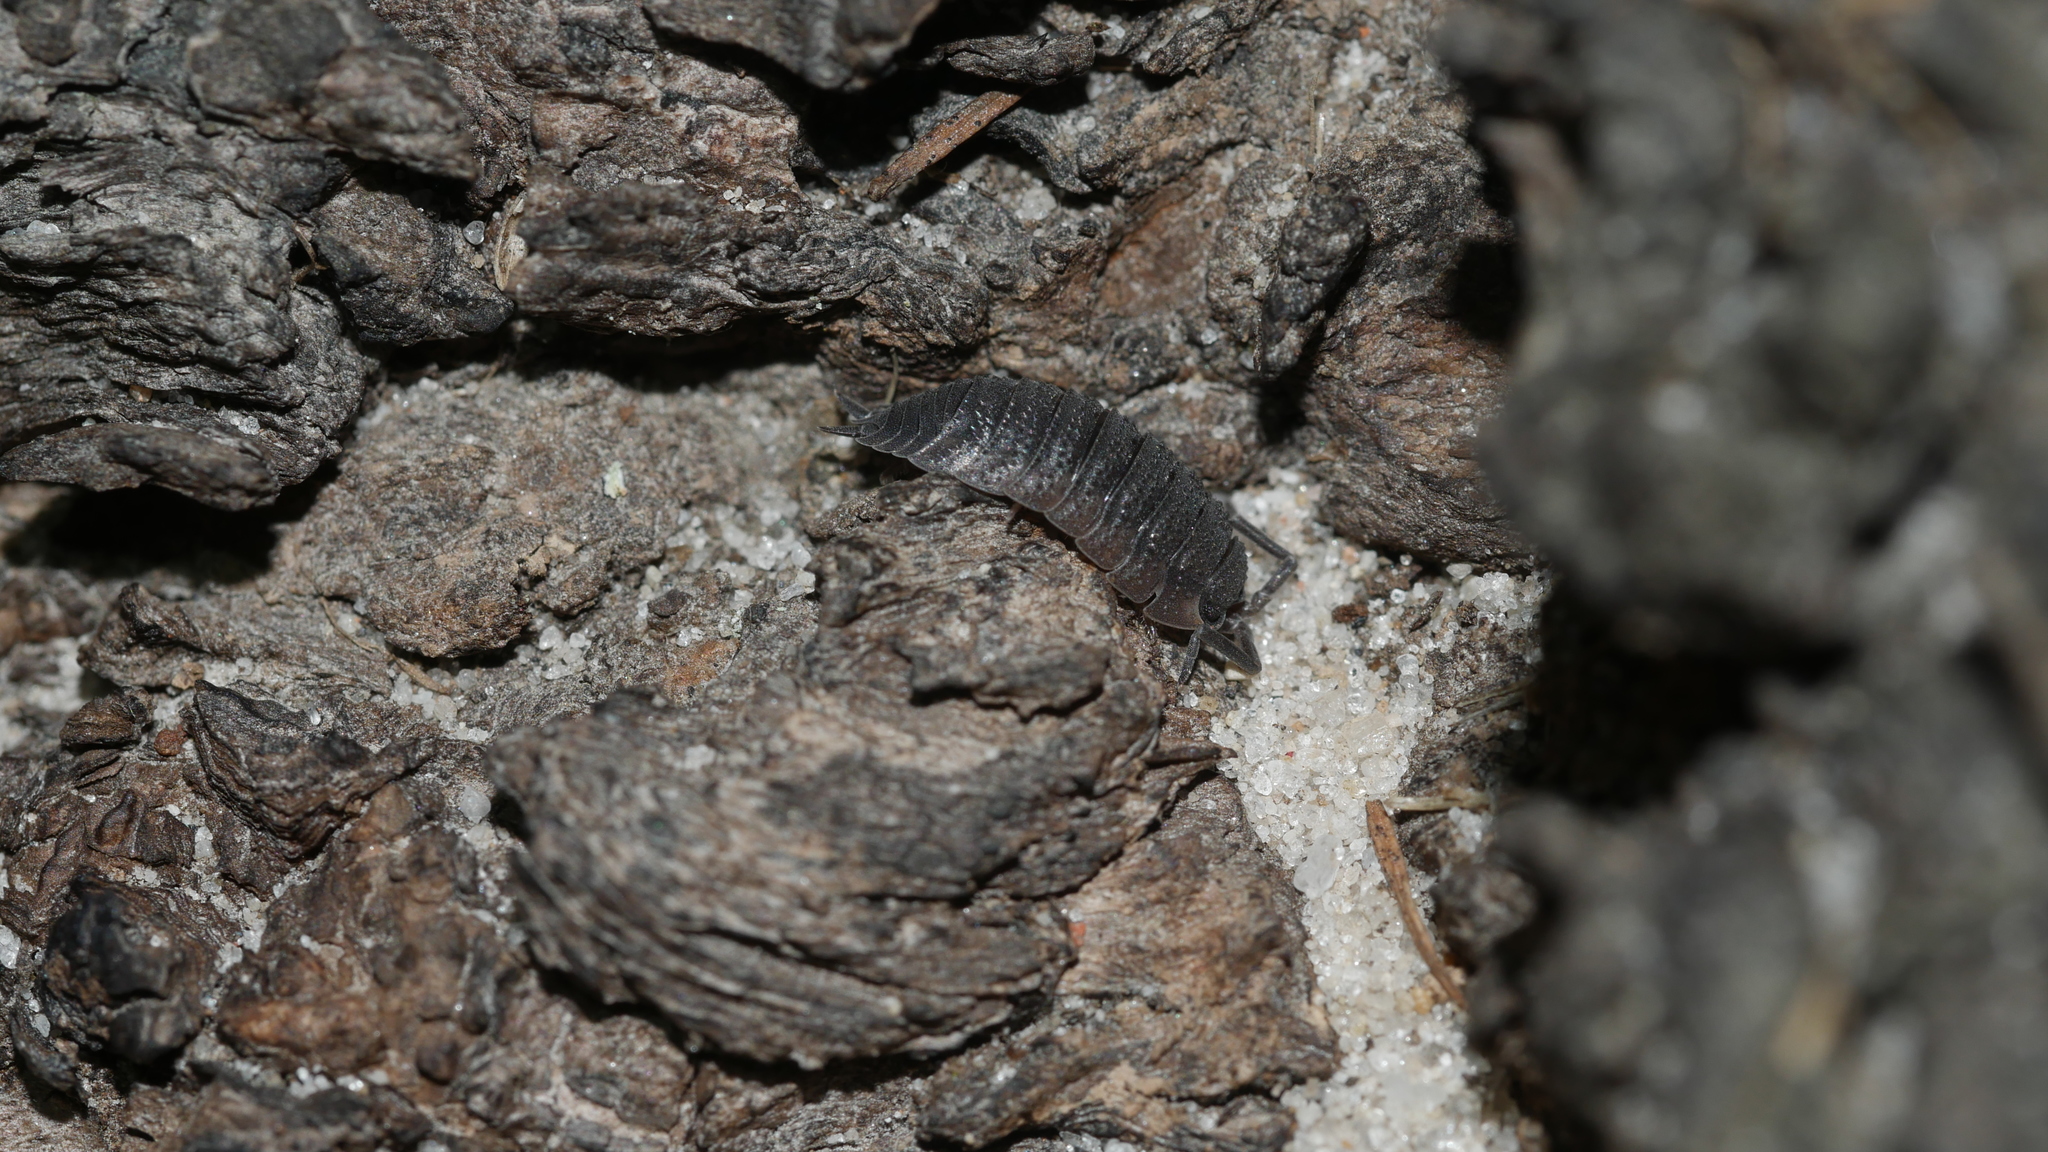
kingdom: Animalia
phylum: Arthropoda
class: Malacostraca
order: Isopoda
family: Porcellionidae
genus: Porcellio
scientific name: Porcellio scaber
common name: Common rough woodlouse
